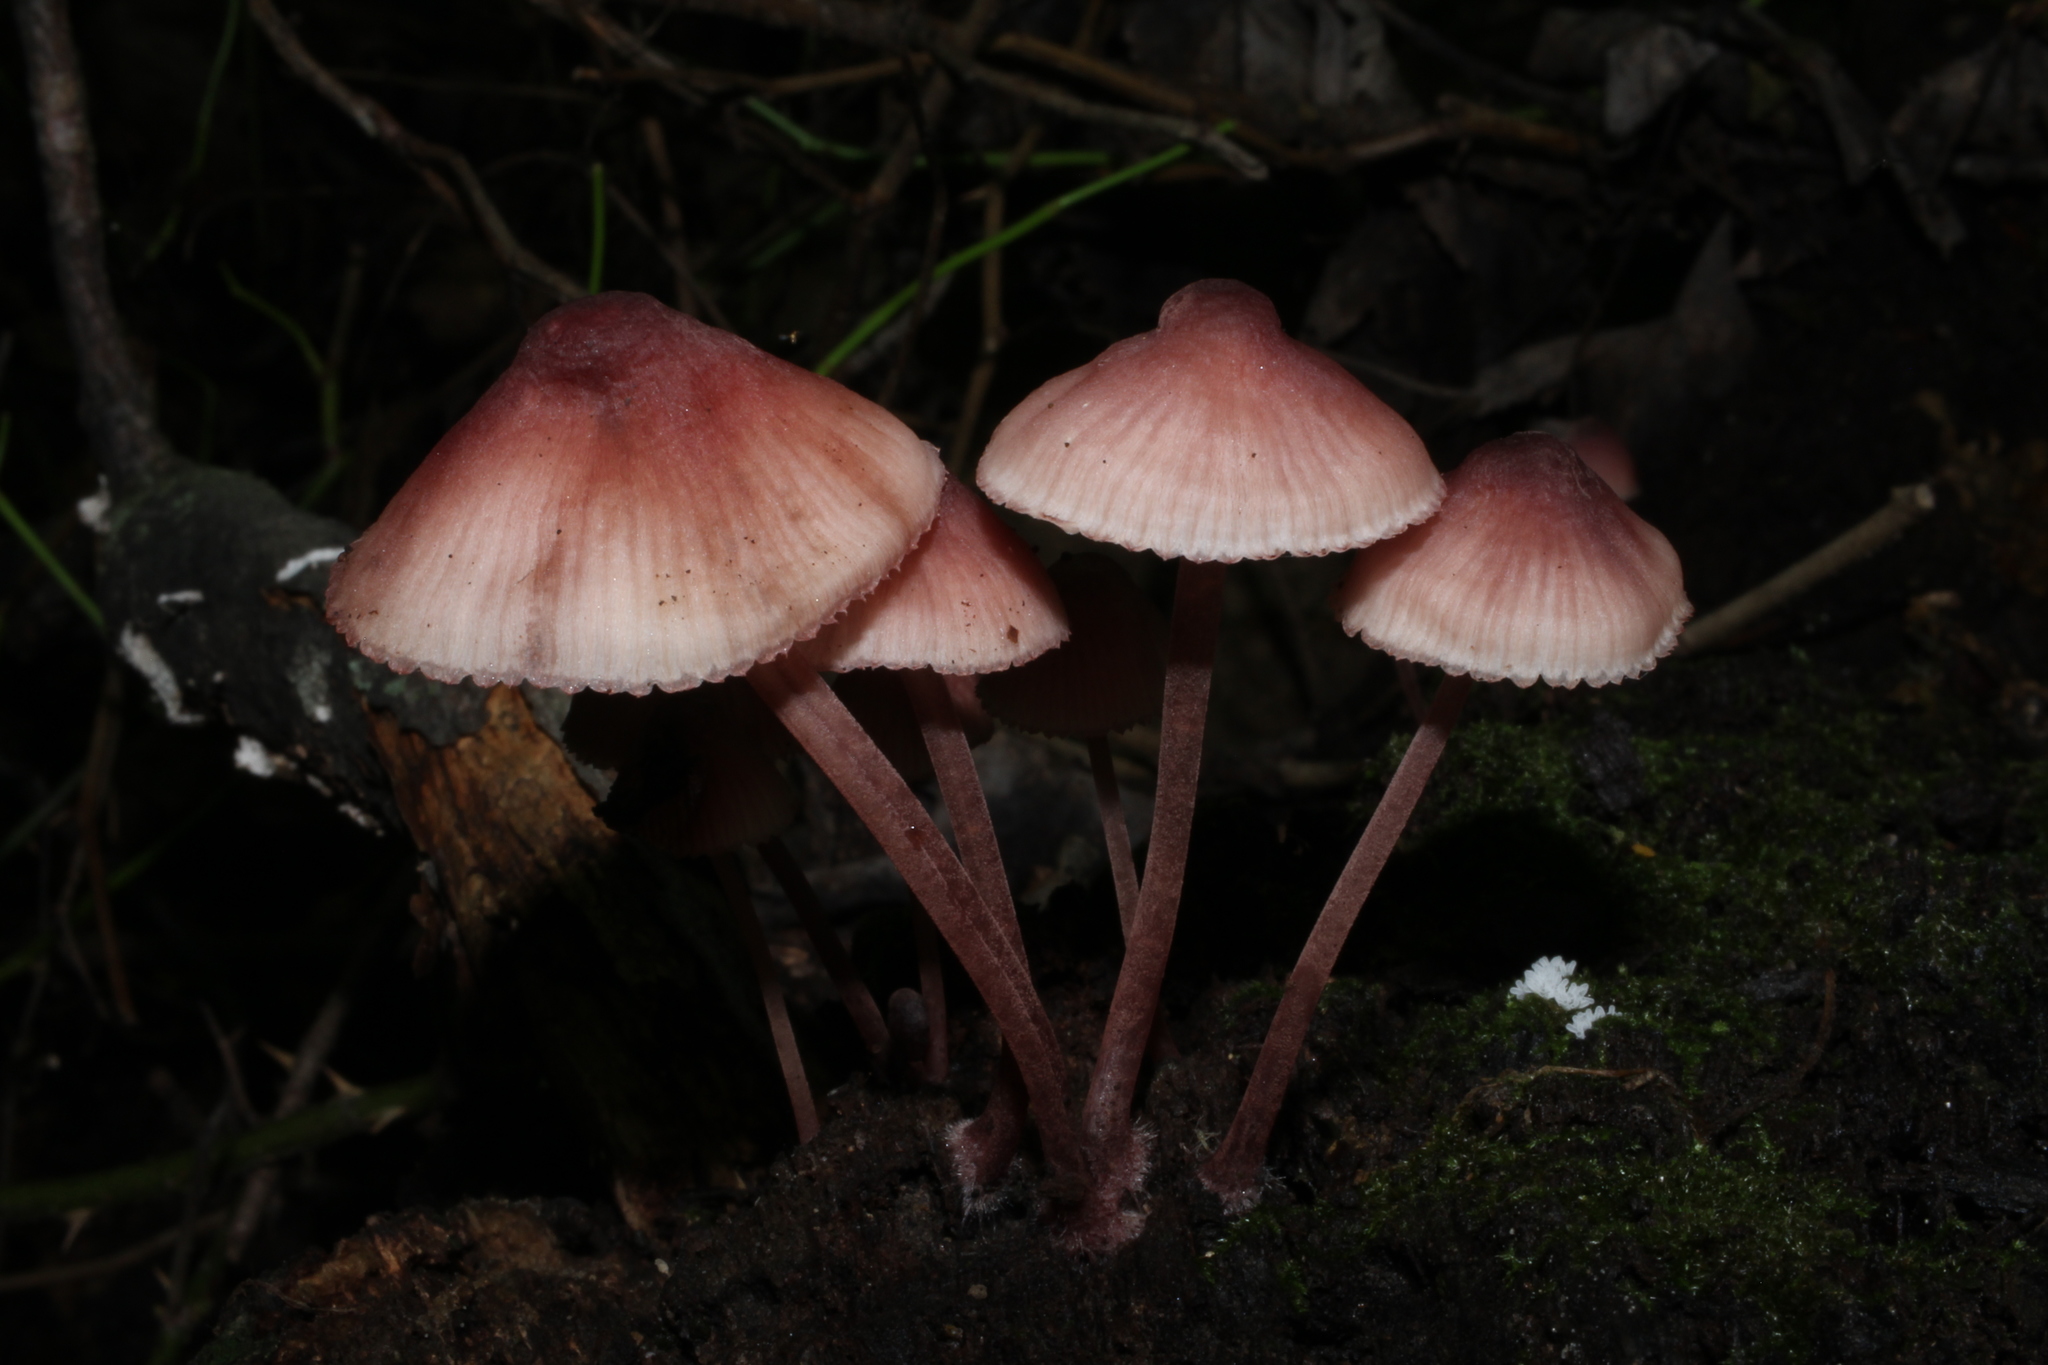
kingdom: Fungi
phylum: Basidiomycota
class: Agaricomycetes
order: Agaricales
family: Mycenaceae
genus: Mycena
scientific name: Mycena haematopus
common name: Burgundydrop bonnet
